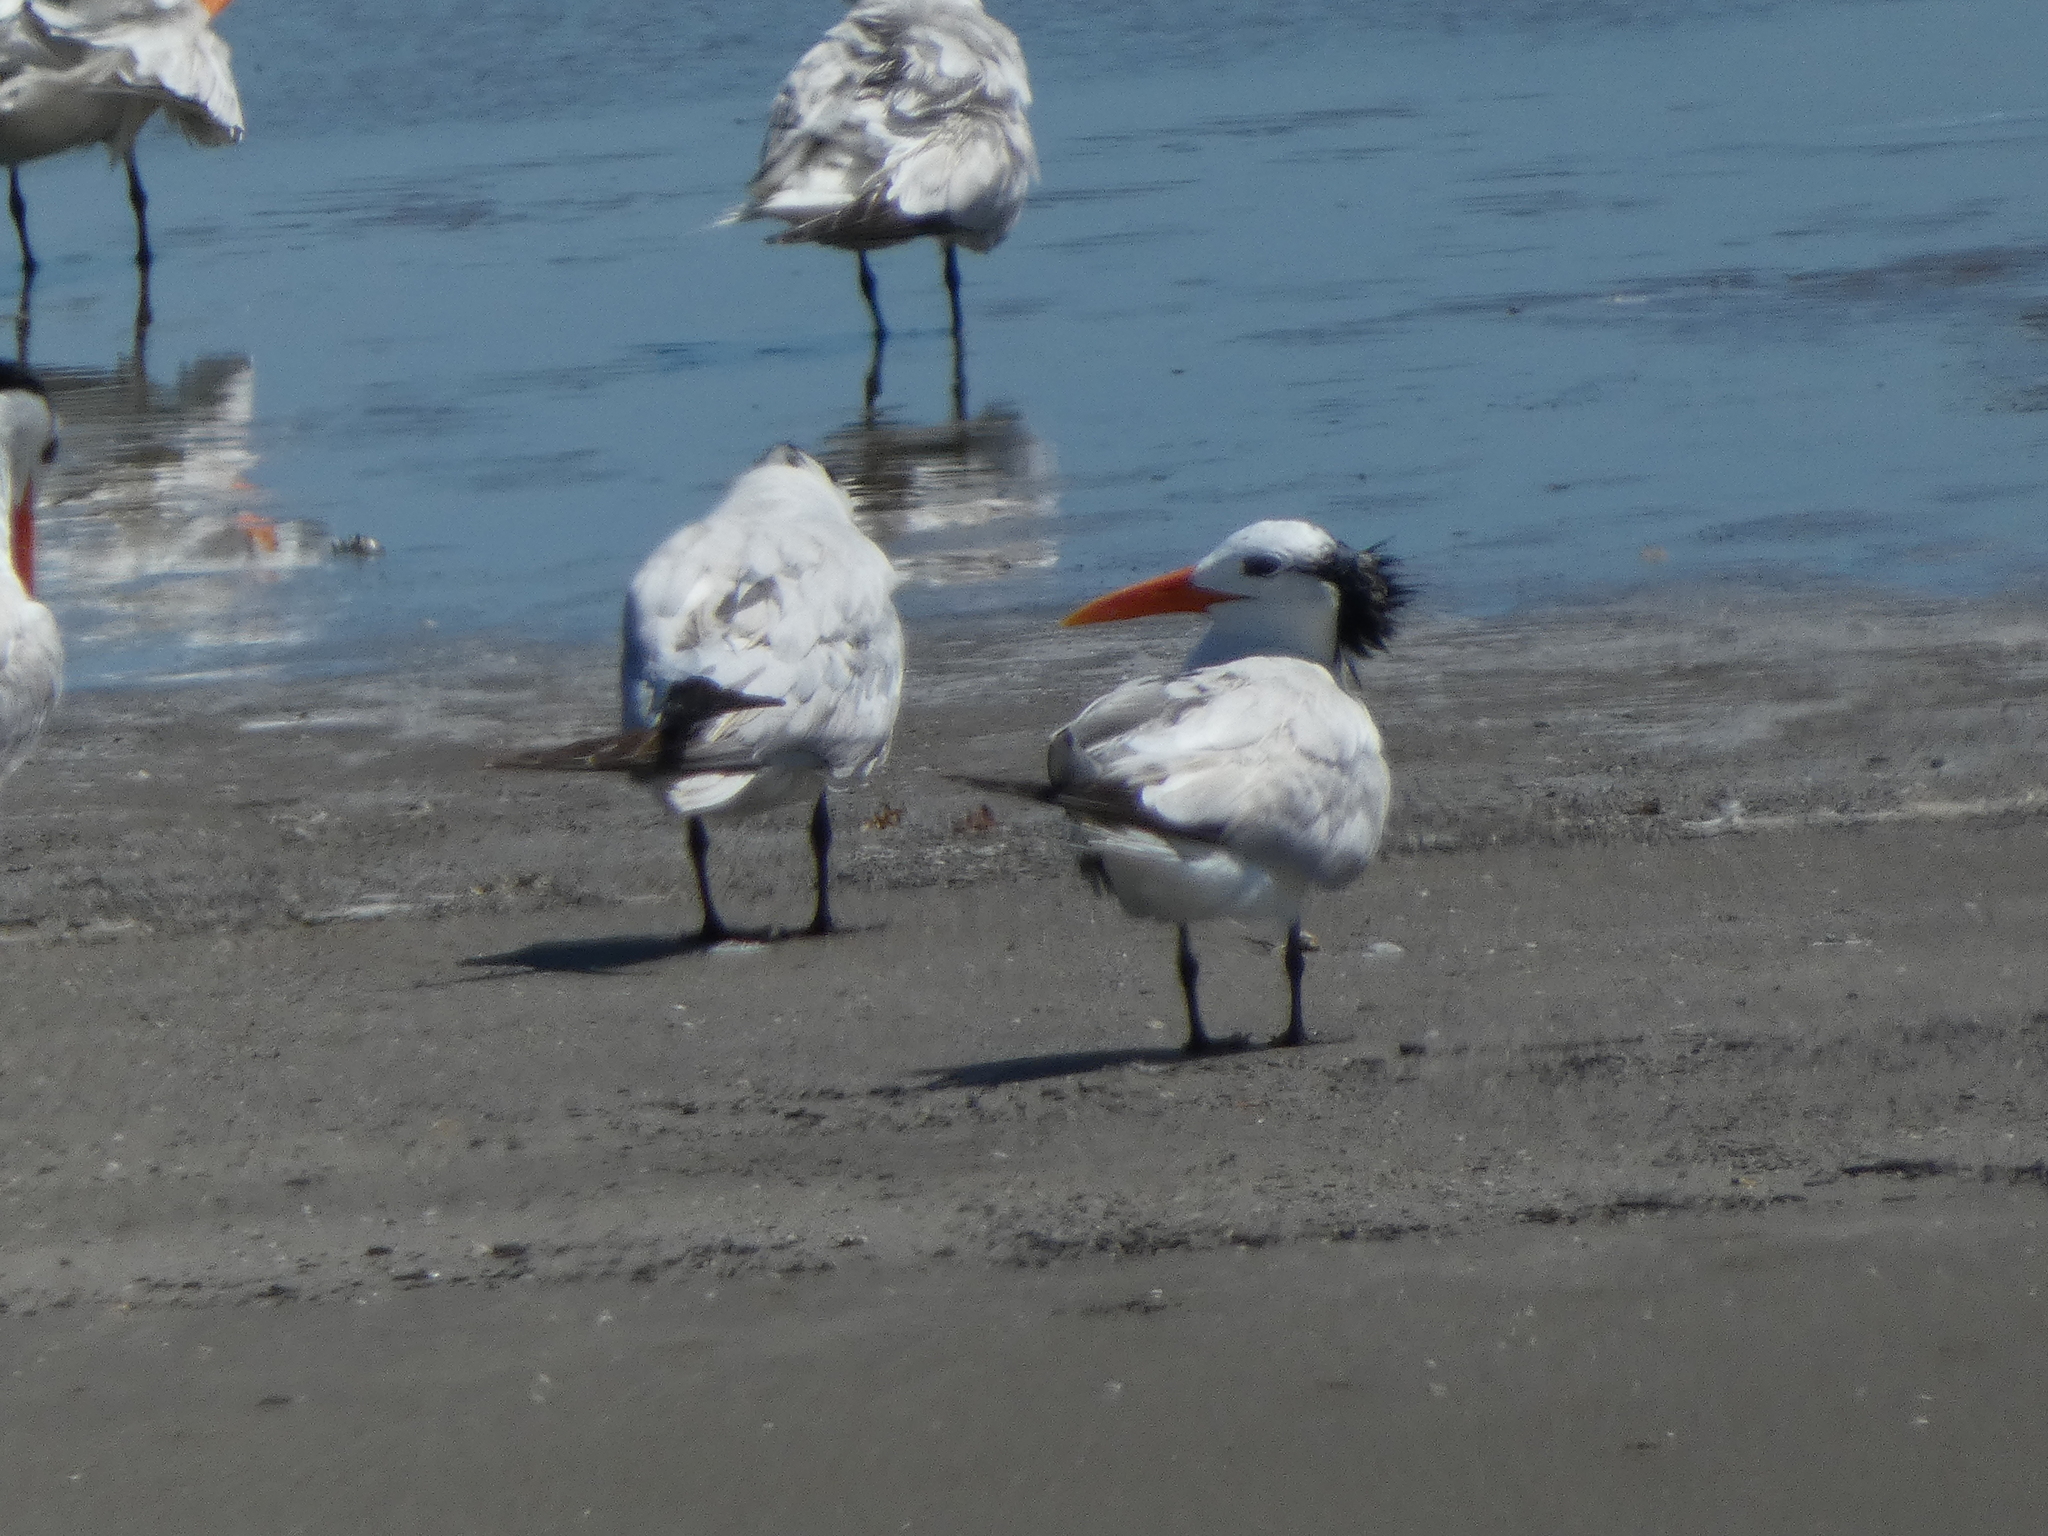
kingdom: Animalia
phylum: Chordata
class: Aves
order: Charadriiformes
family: Laridae
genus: Thalasseus
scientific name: Thalasseus maximus
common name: Royal tern
